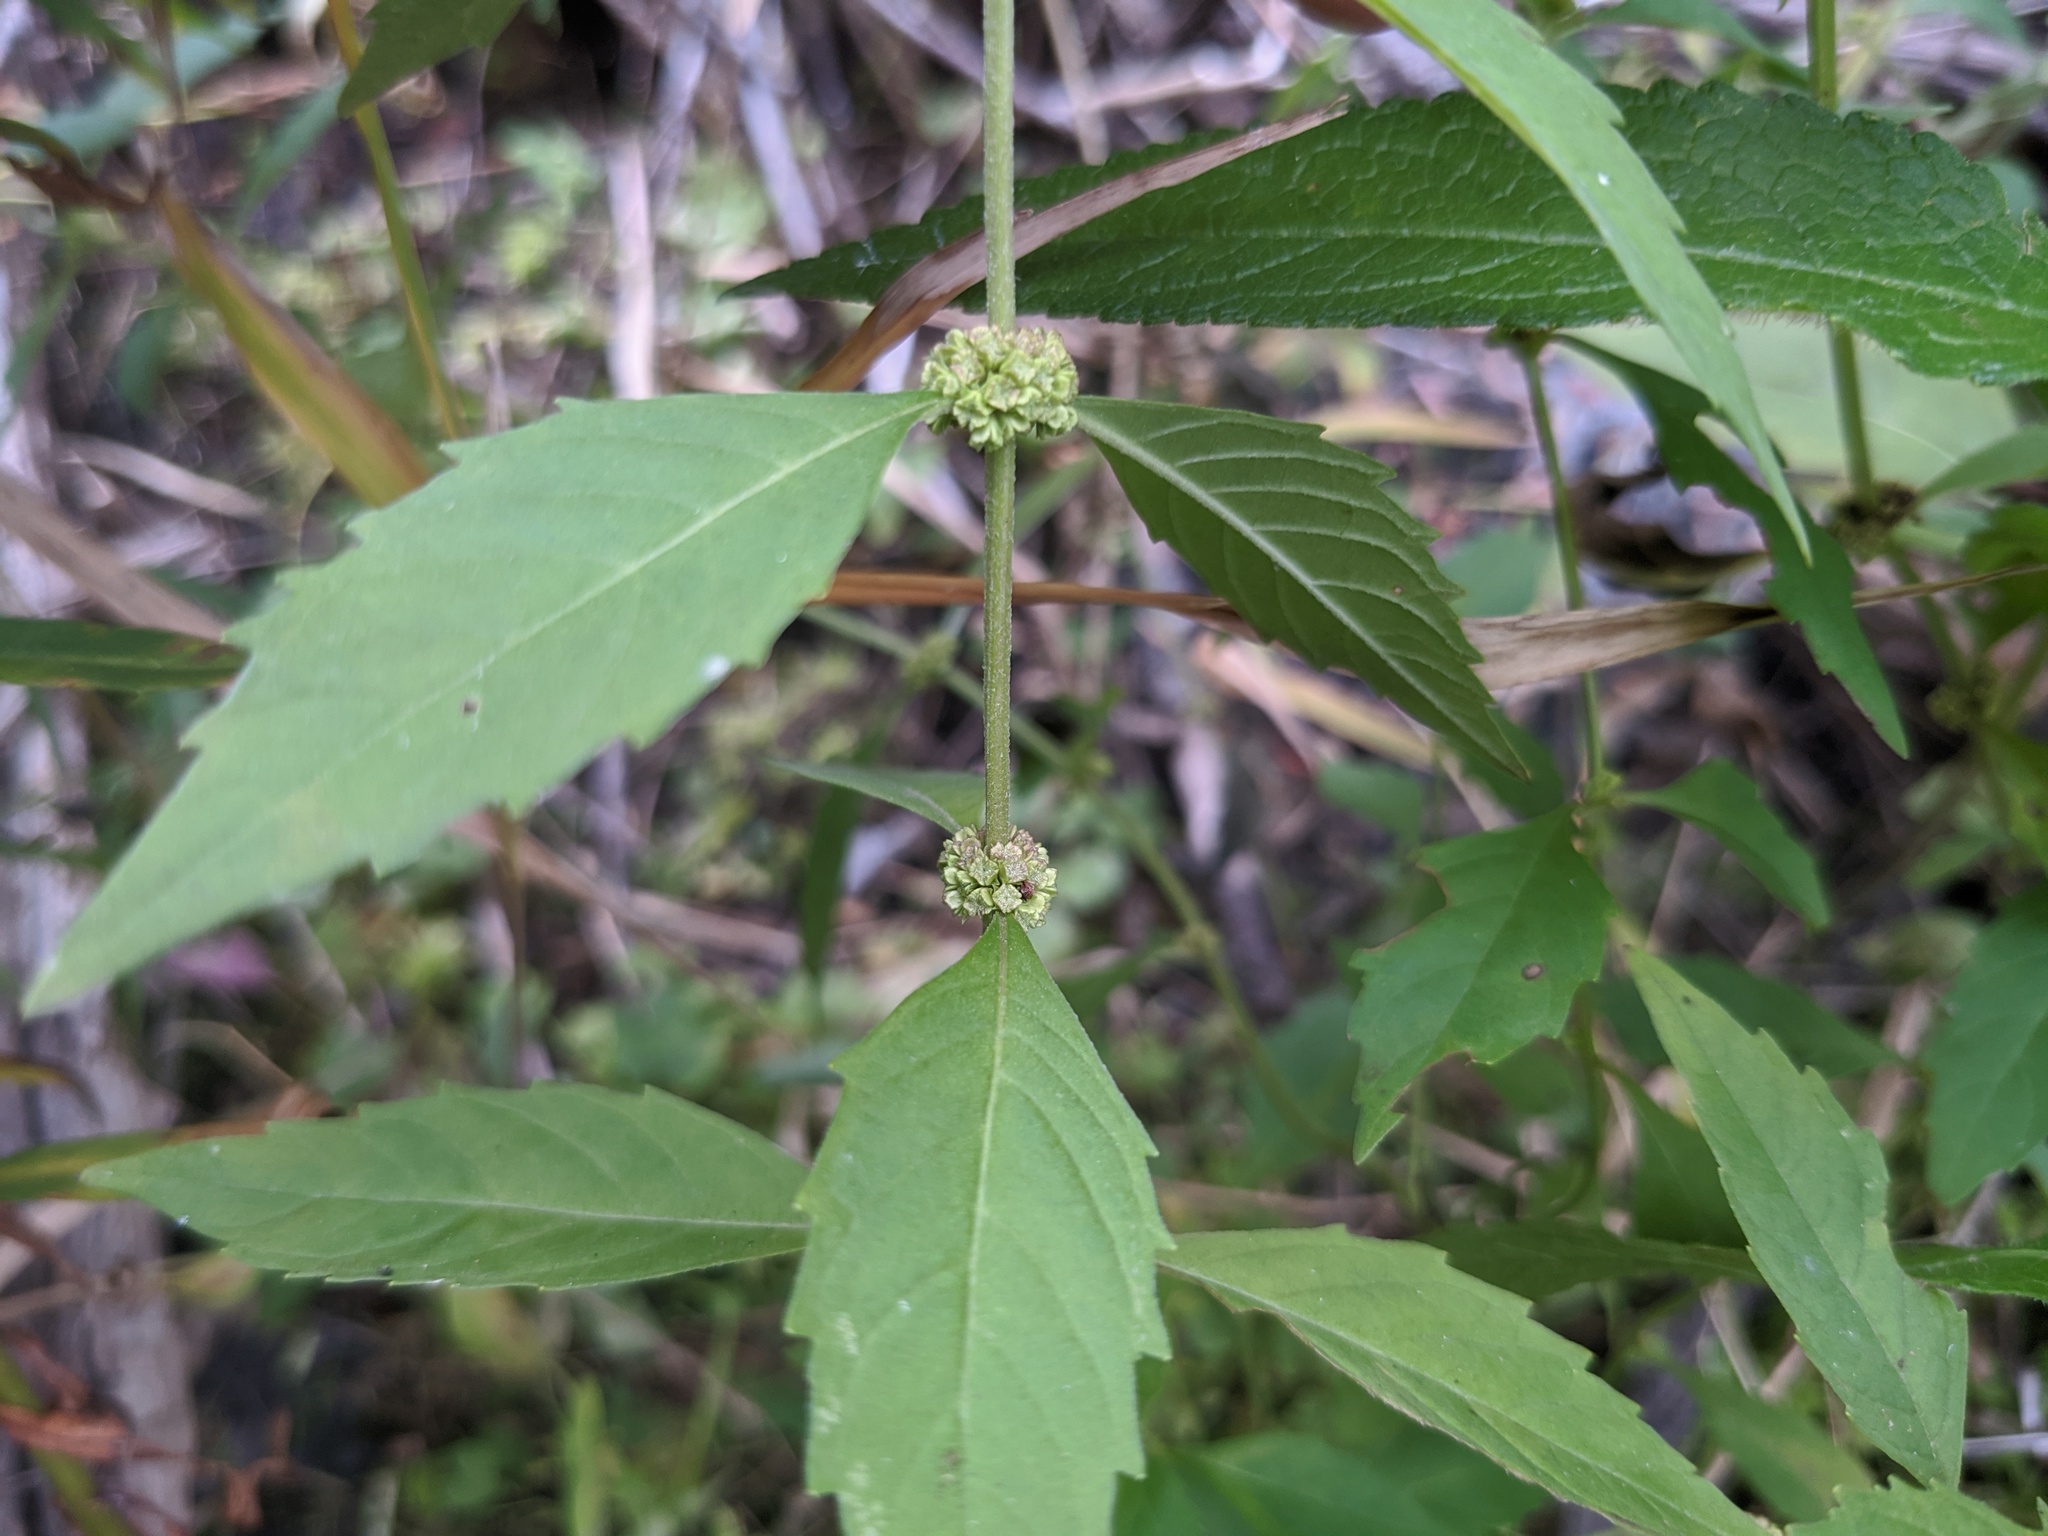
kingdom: Plantae
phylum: Tracheophyta
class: Magnoliopsida
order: Lamiales
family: Lamiaceae
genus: Lycopus
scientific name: Lycopus uniflorus
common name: Northern bugleweed
